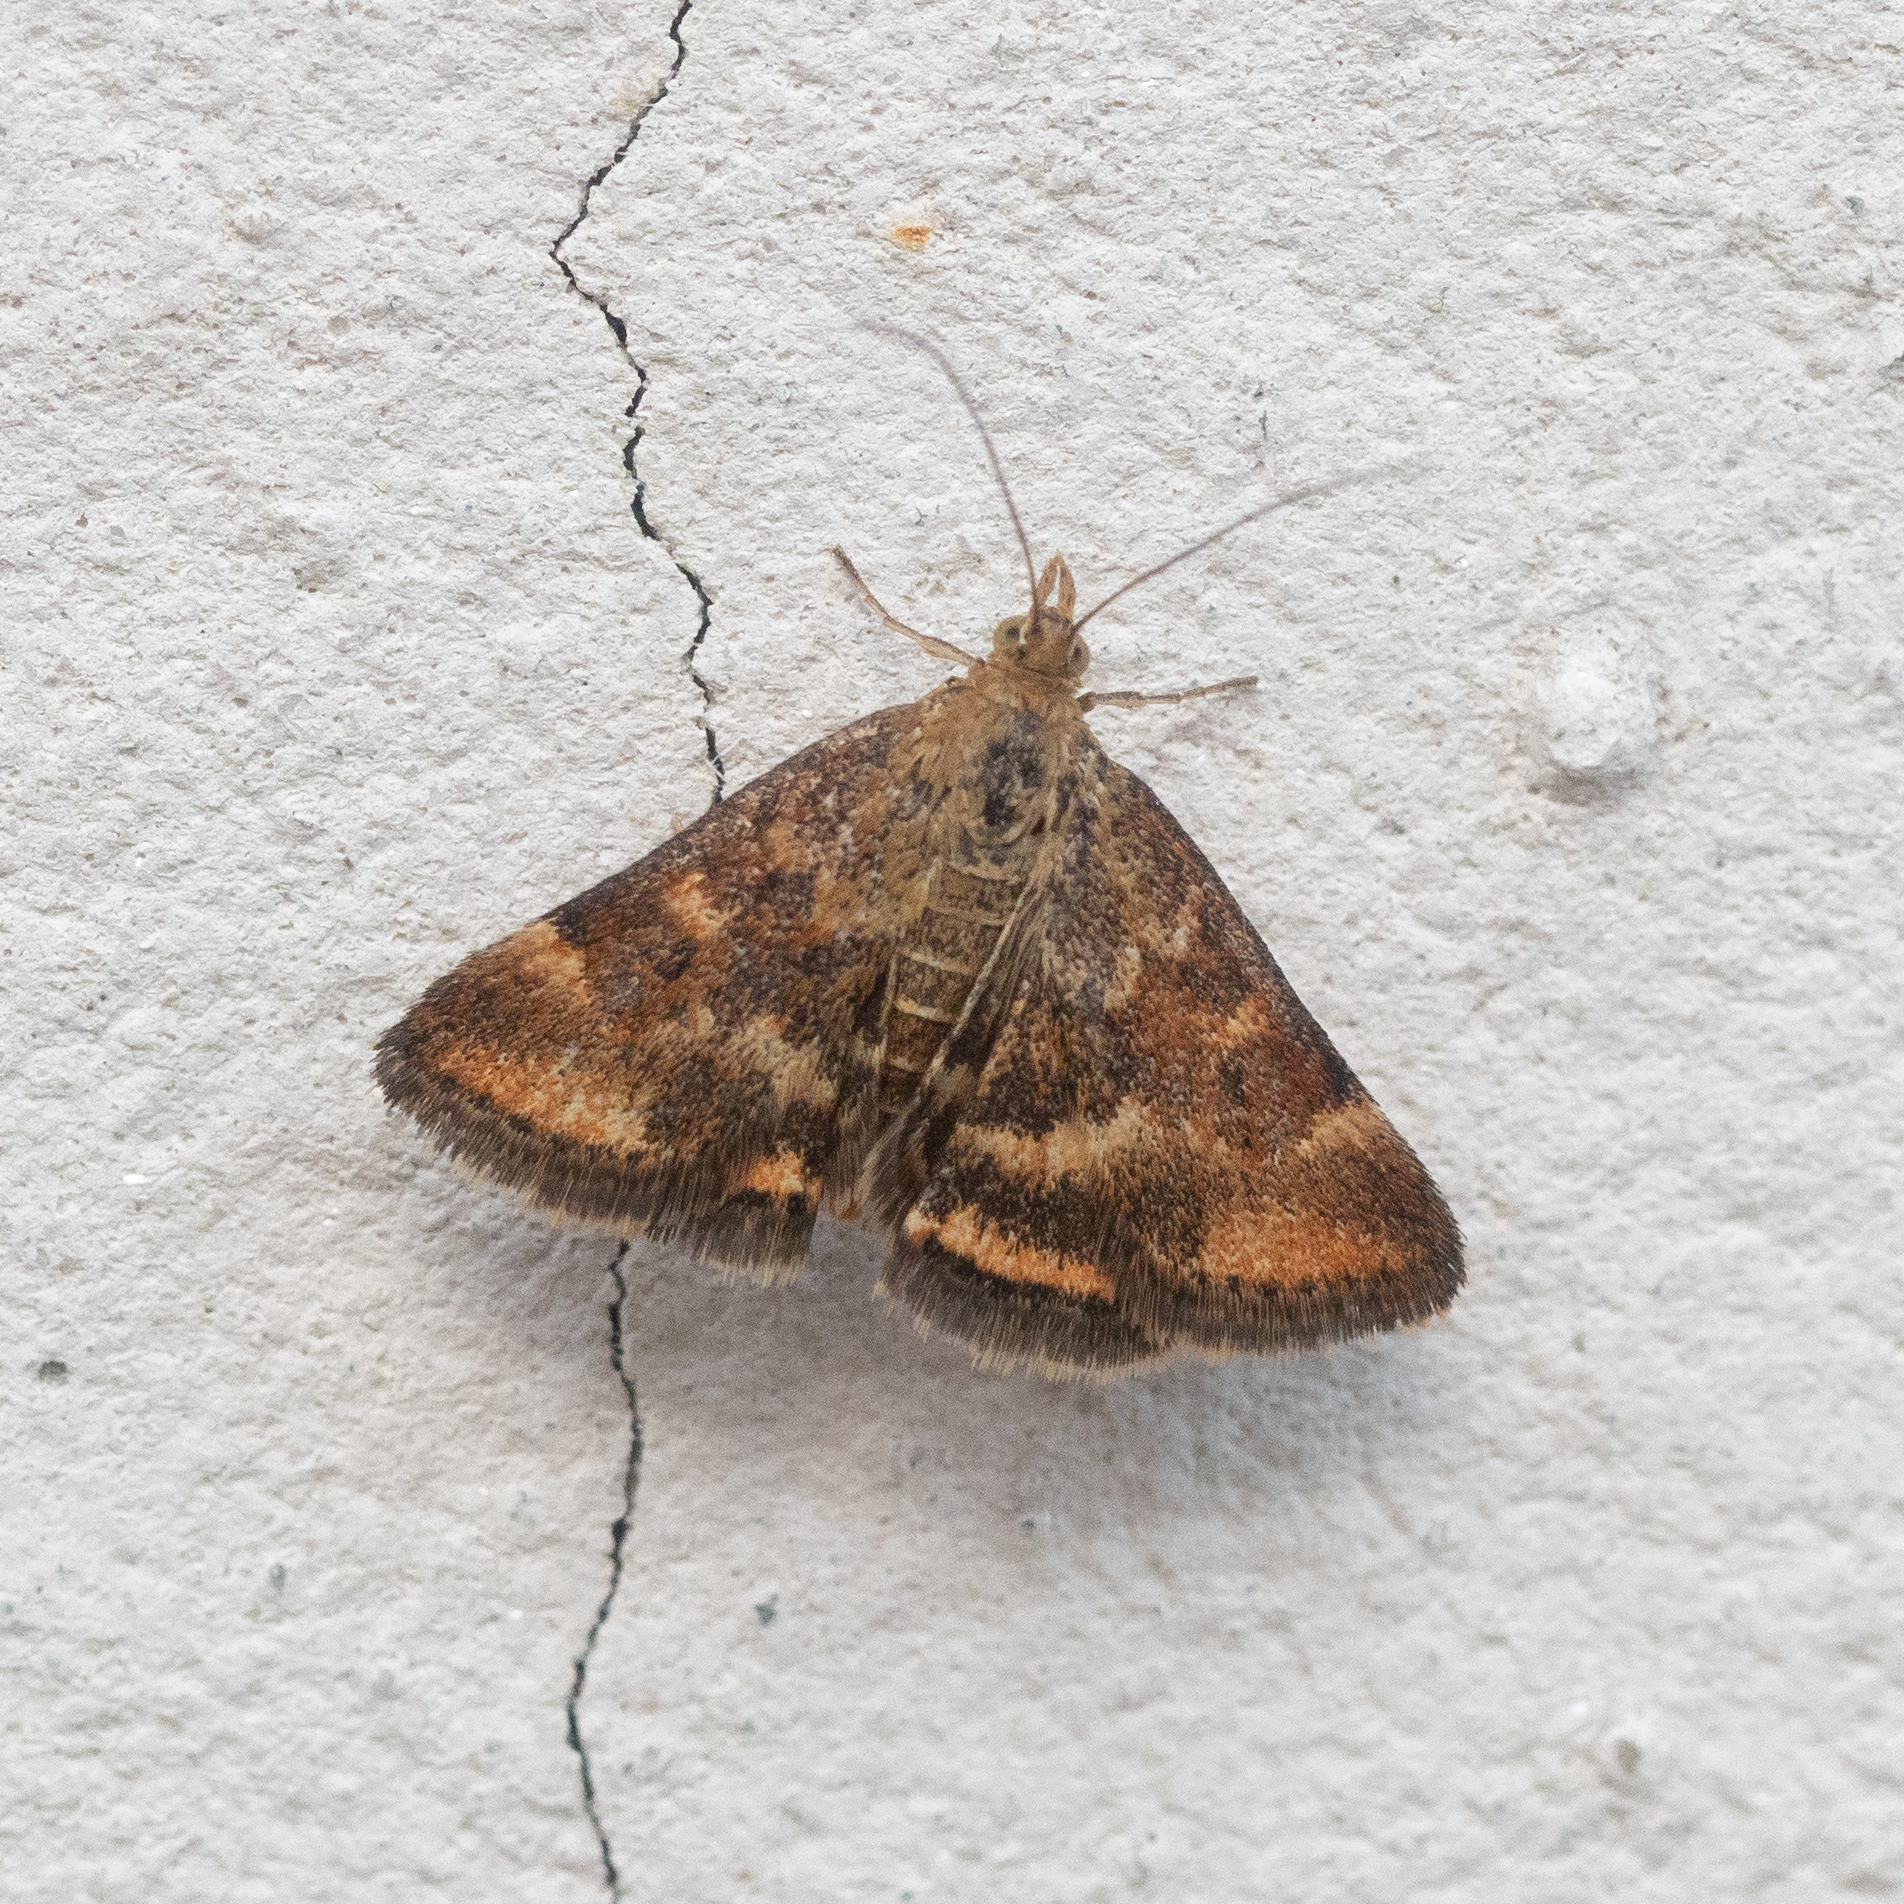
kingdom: Animalia
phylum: Arthropoda
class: Insecta
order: Lepidoptera
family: Crambidae
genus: Pyrausta
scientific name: Pyrausta despicata
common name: Straw-barred pearl
